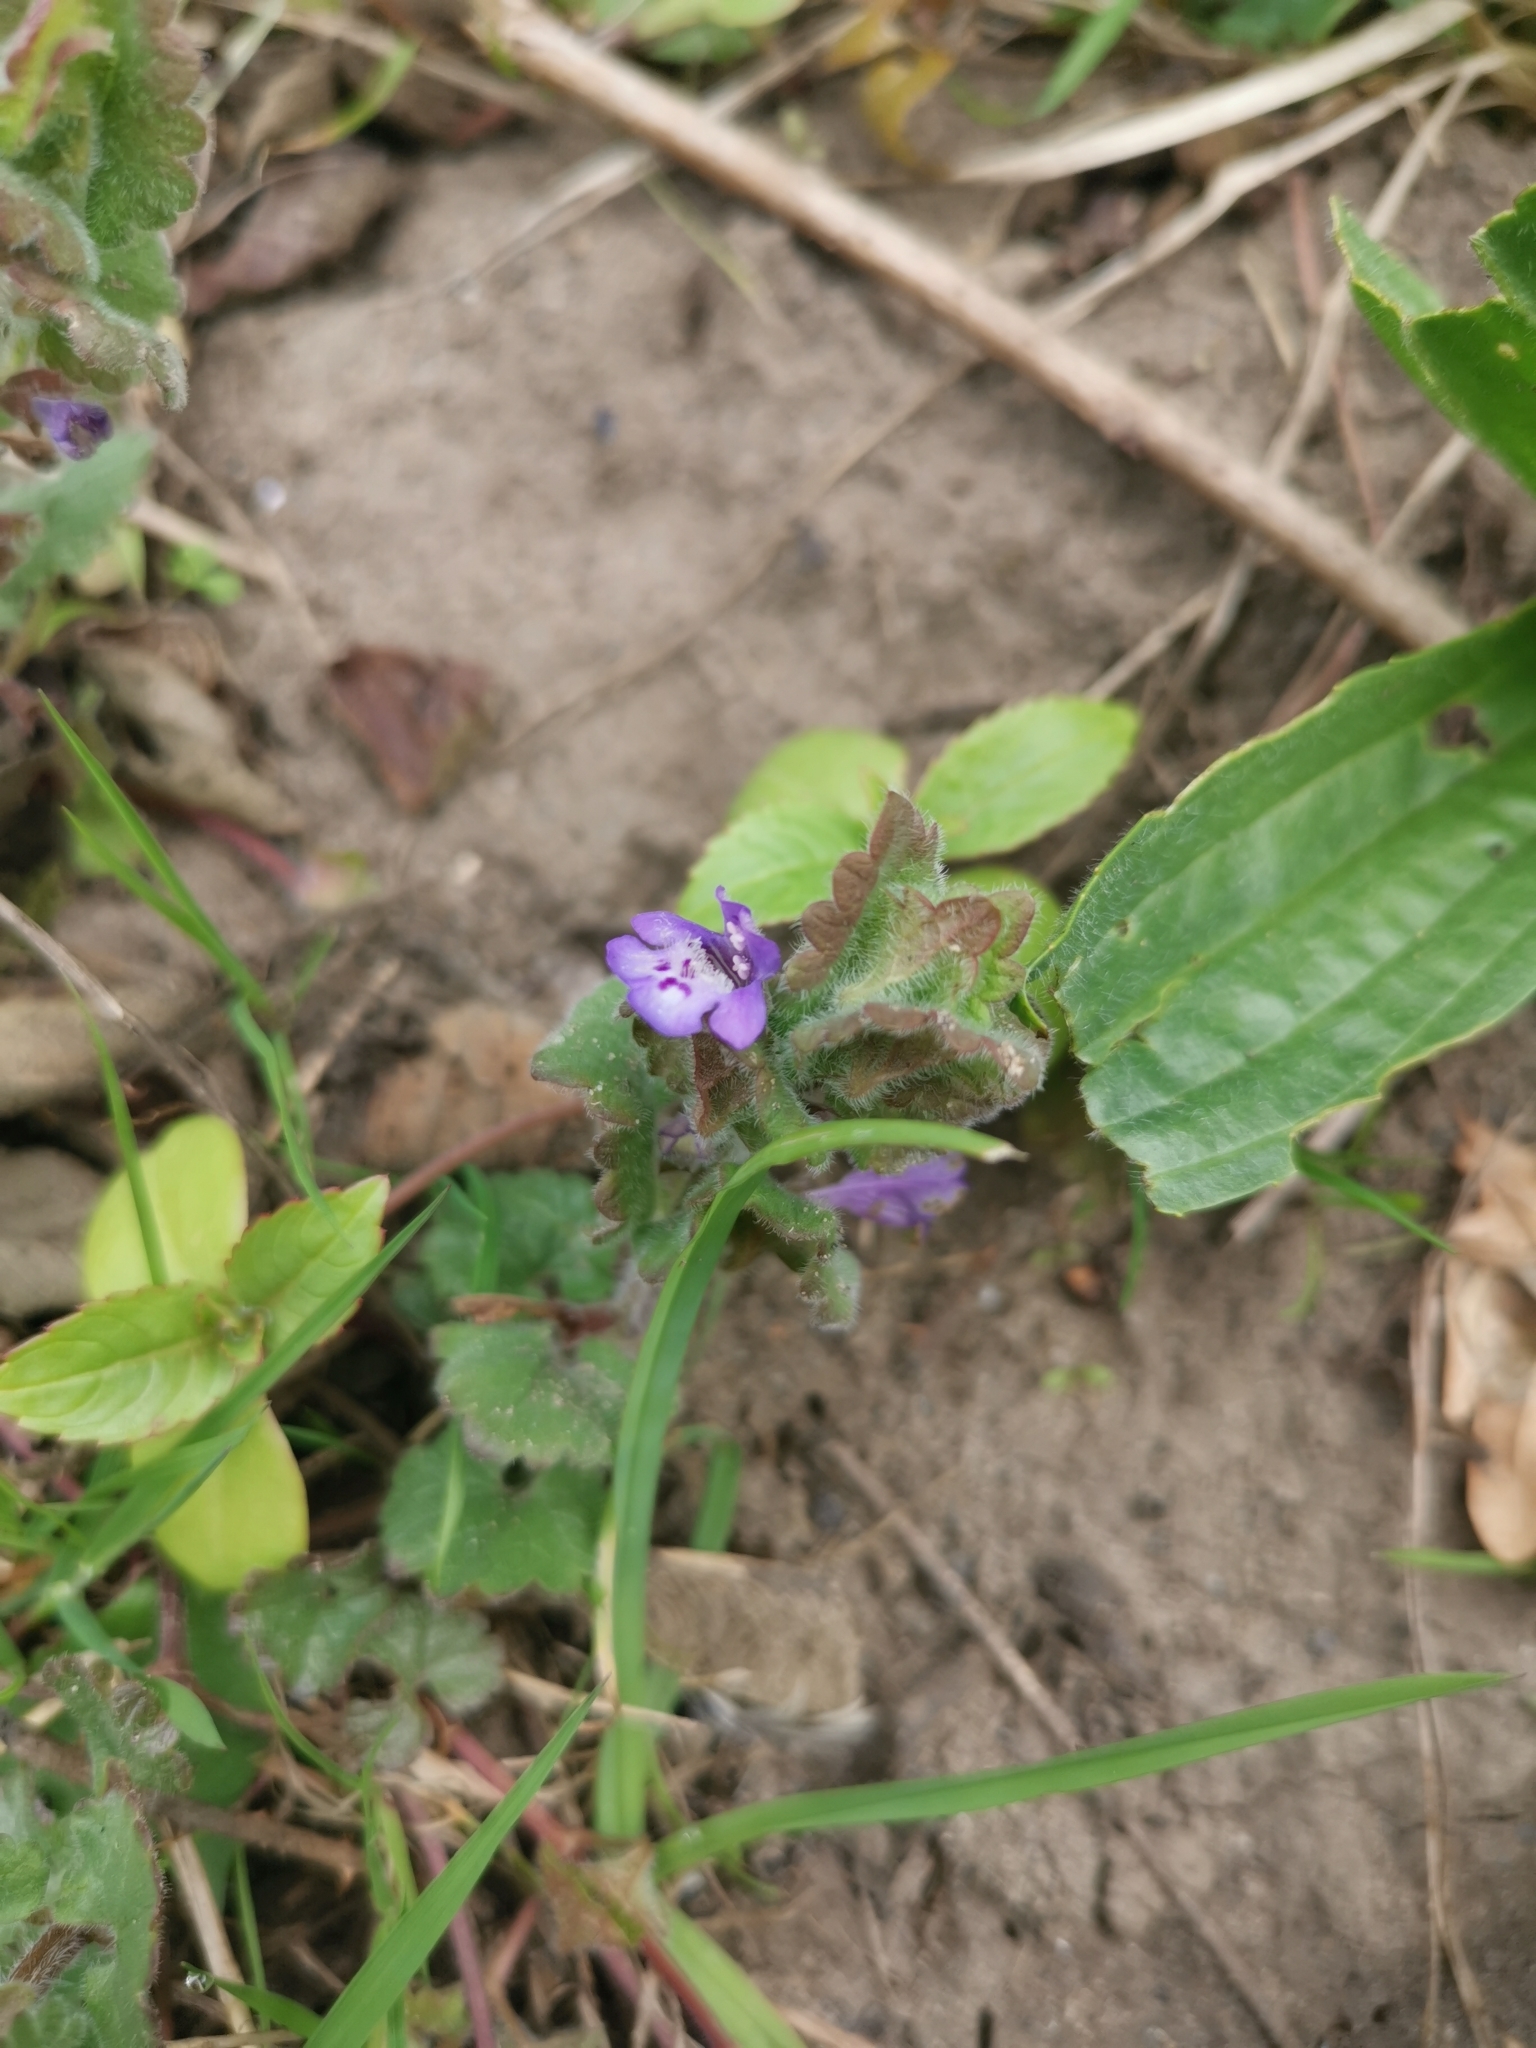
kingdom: Plantae
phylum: Tracheophyta
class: Magnoliopsida
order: Lamiales
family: Lamiaceae
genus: Glechoma
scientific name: Glechoma hederacea
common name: Ground ivy
